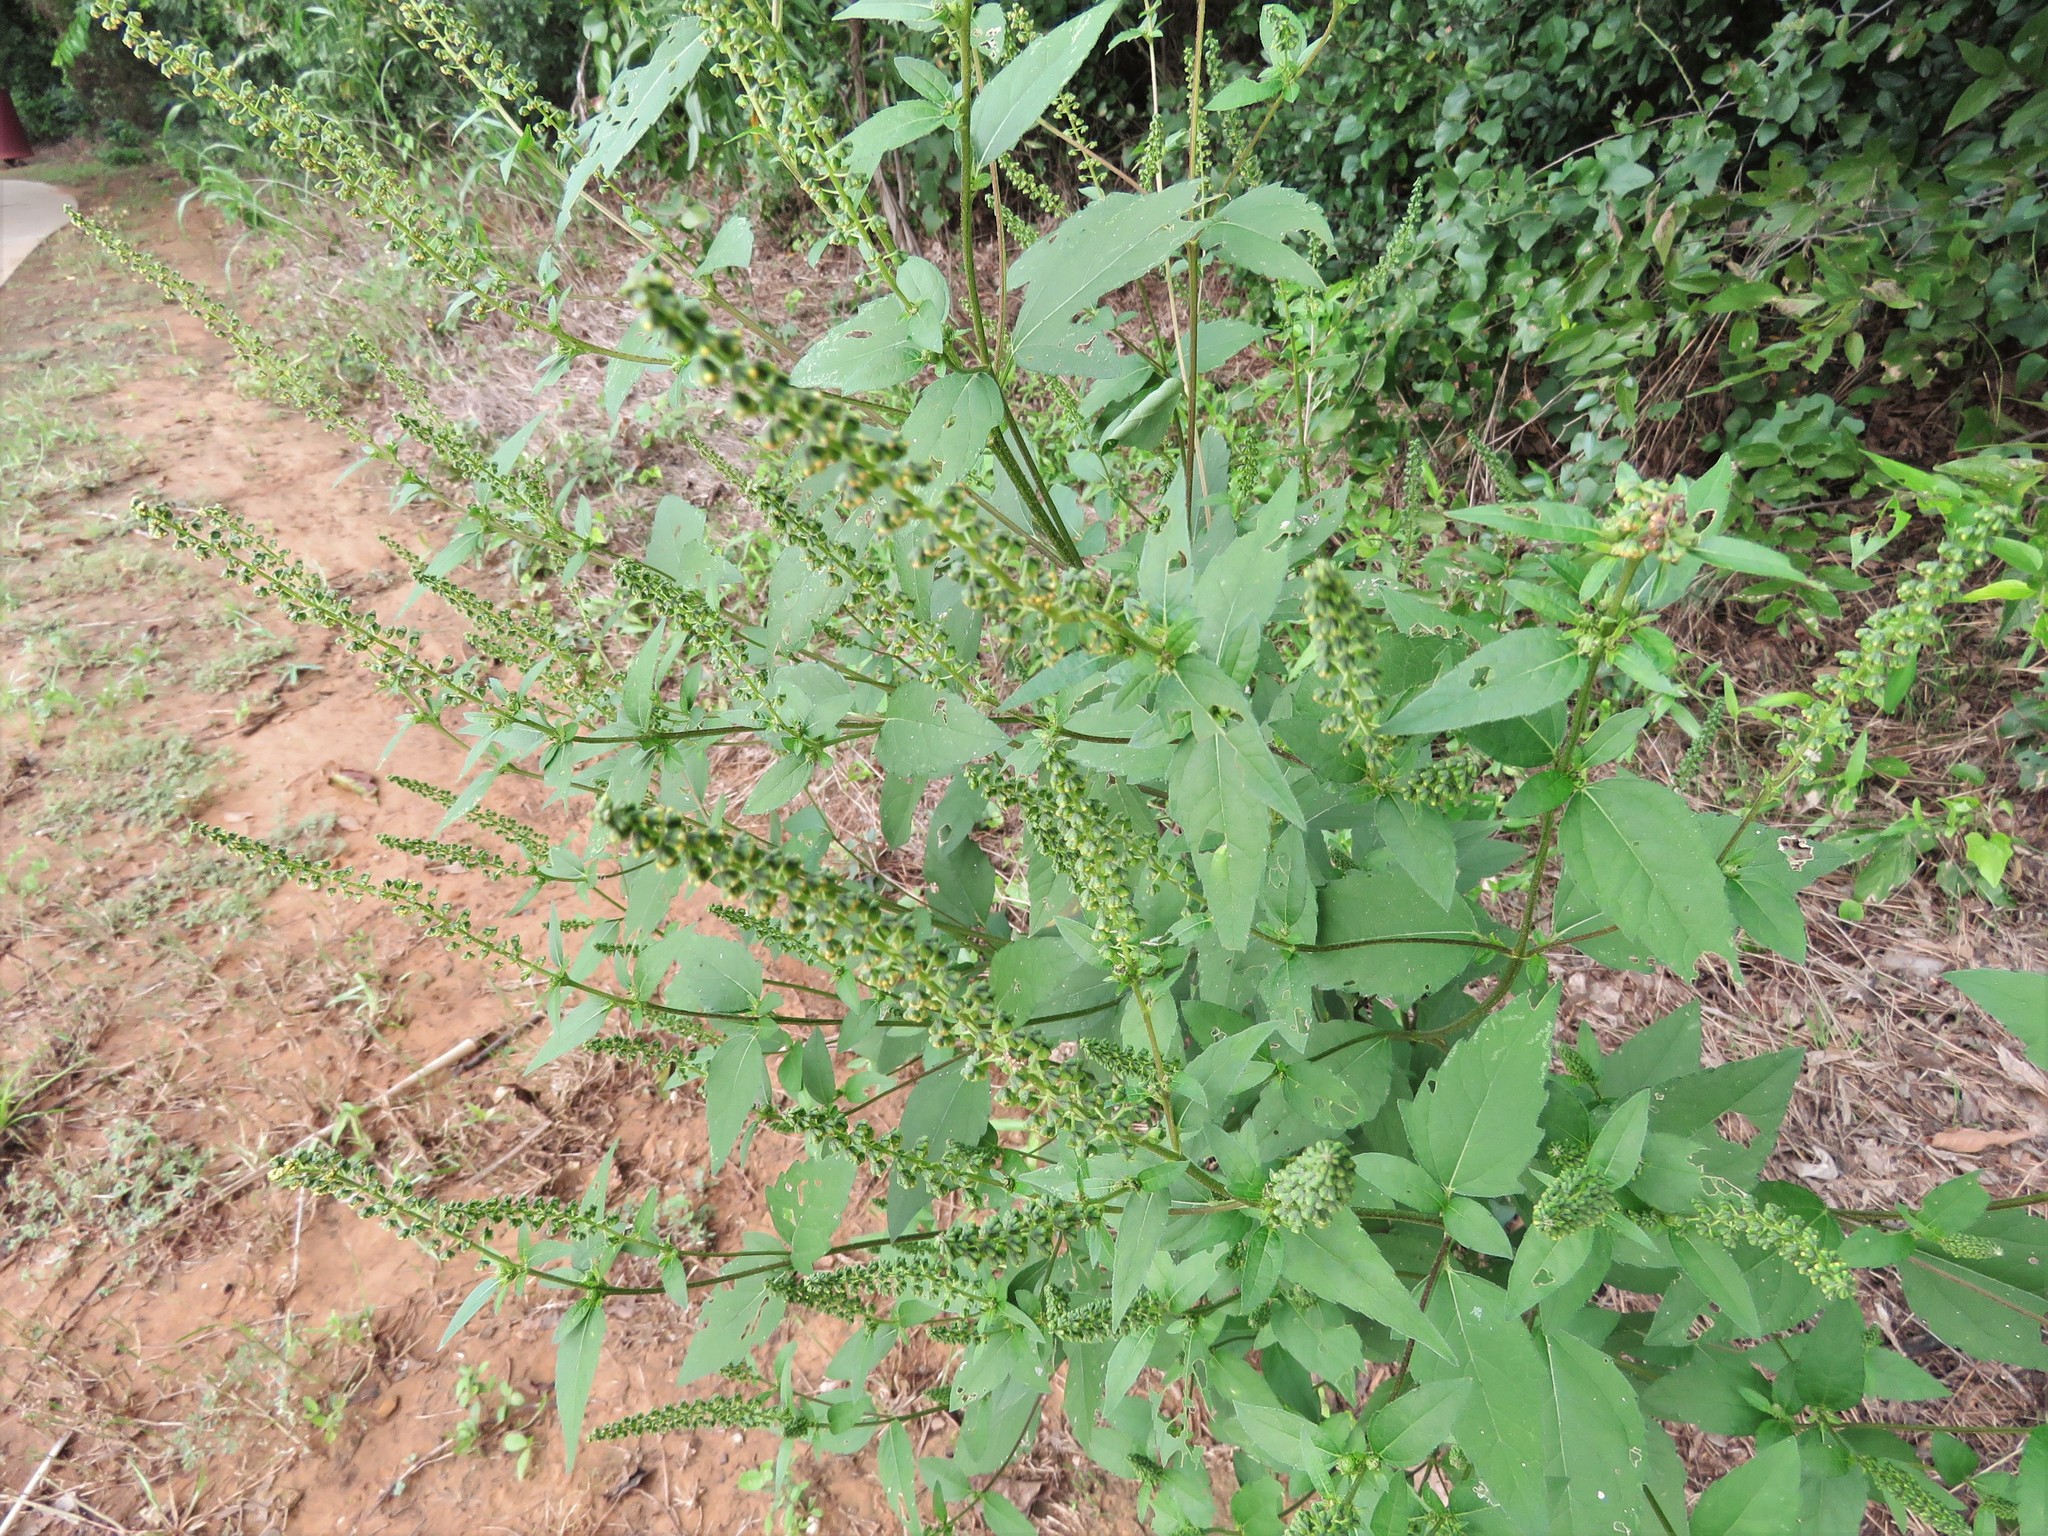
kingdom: Plantae
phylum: Tracheophyta
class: Magnoliopsida
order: Asterales
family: Asteraceae
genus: Ambrosia
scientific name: Ambrosia trifida
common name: Giant ragweed
